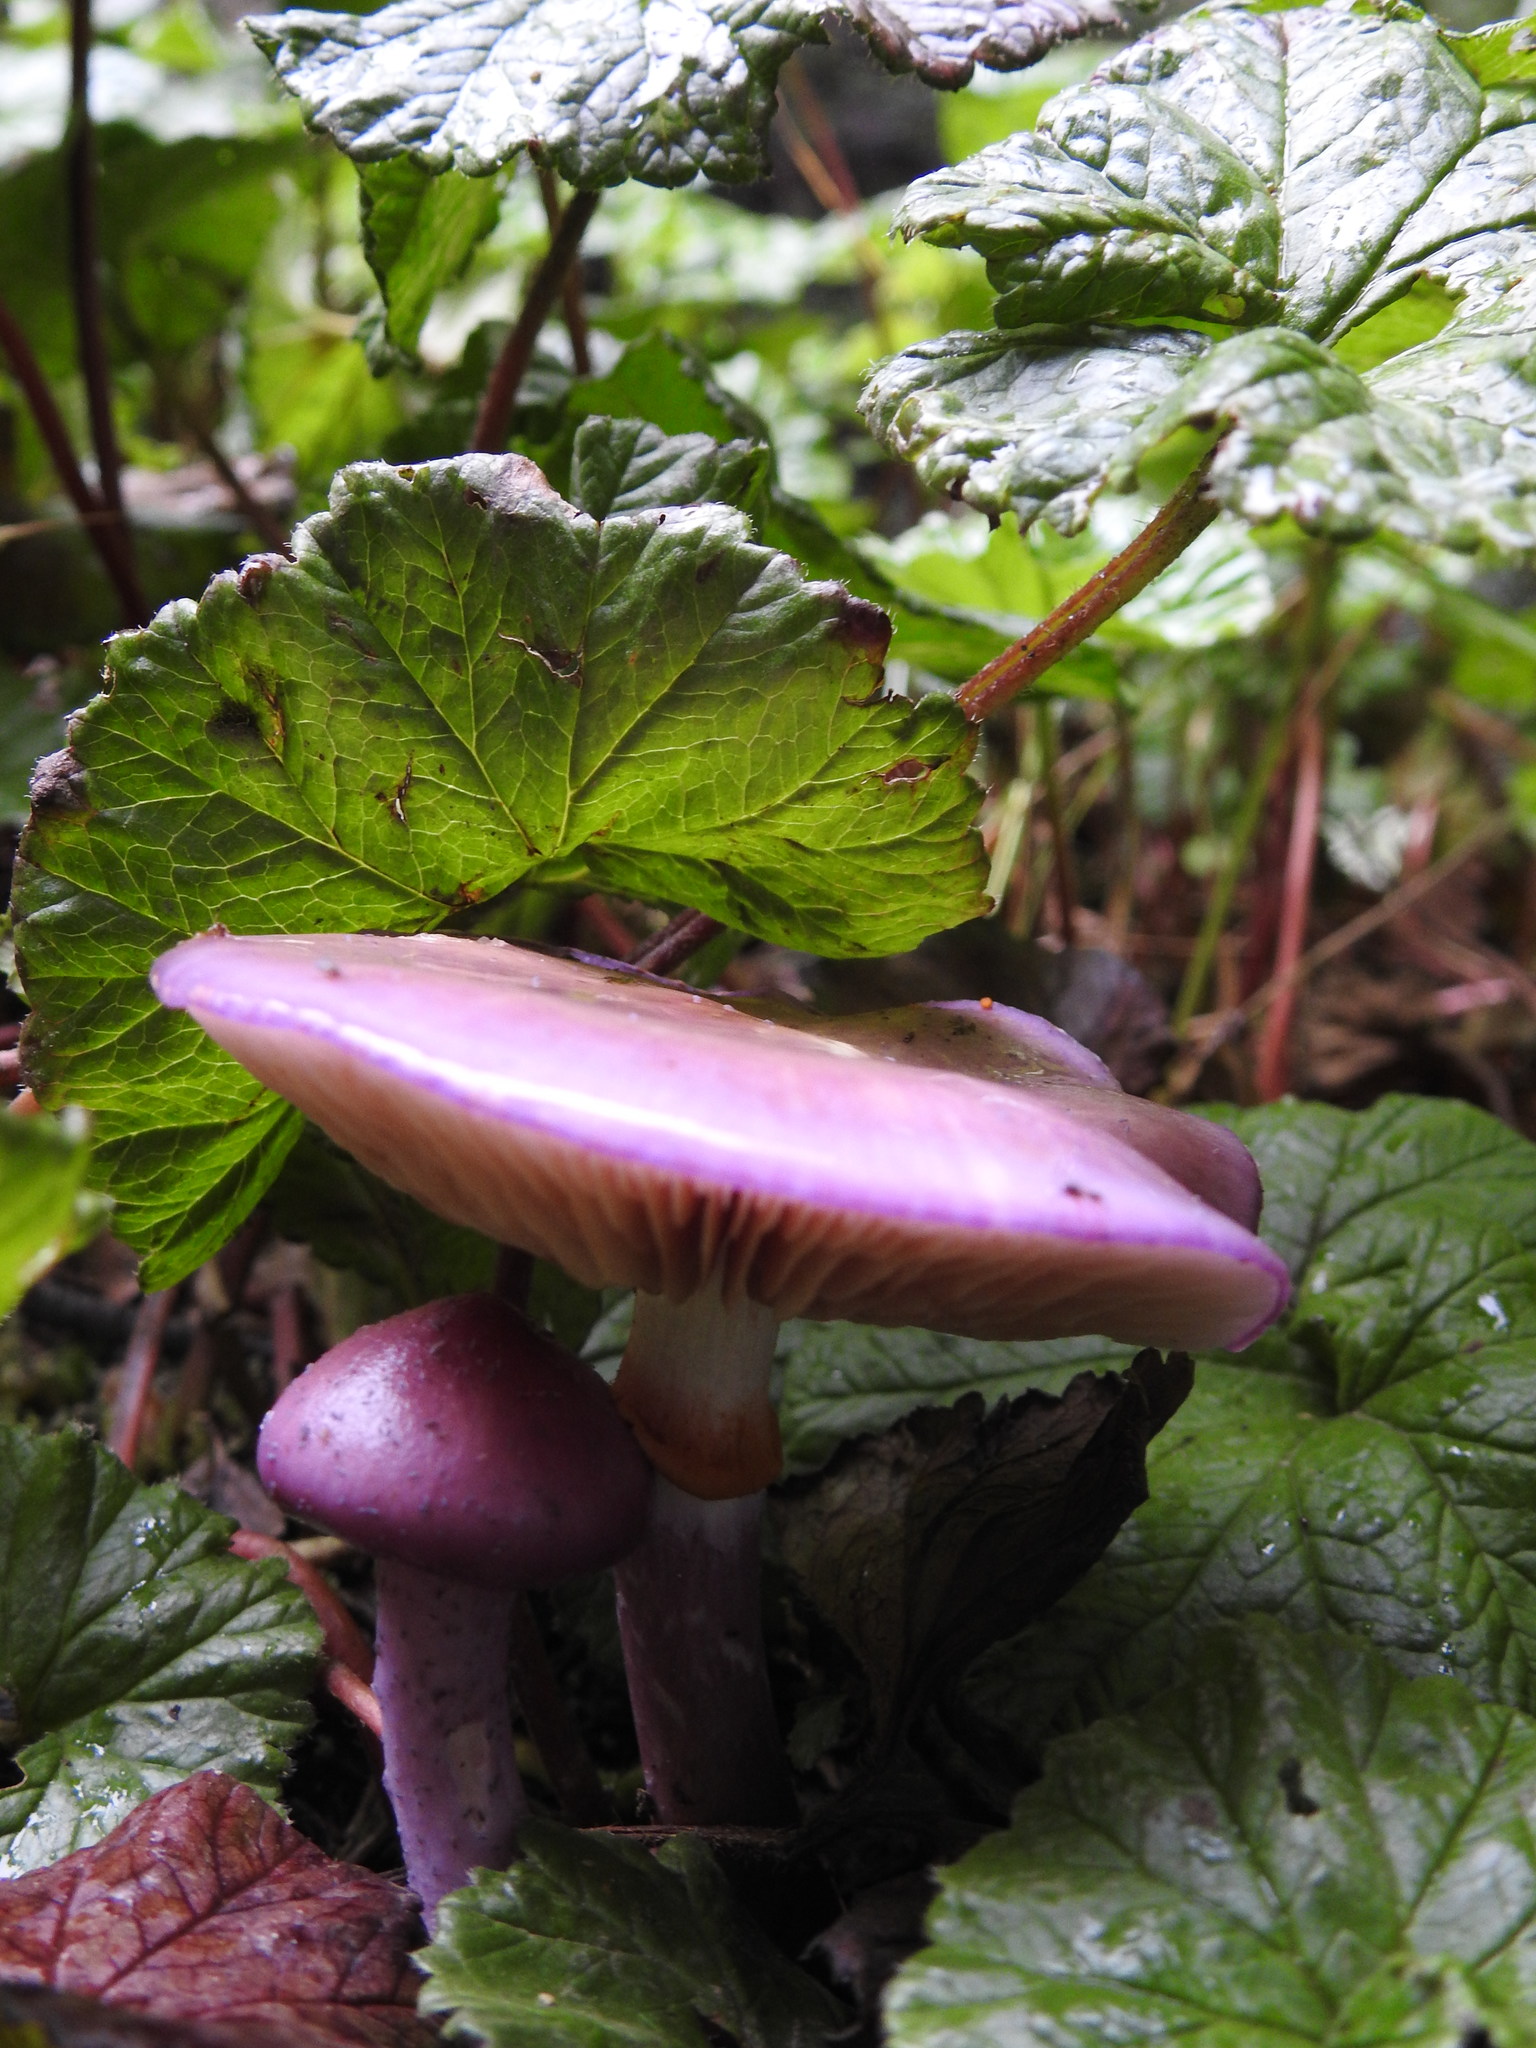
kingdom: Fungi
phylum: Basidiomycota
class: Agaricomycetes
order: Agaricales
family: Cortinariaceae
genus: Cortinarius
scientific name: Cortinarius magellanicus
